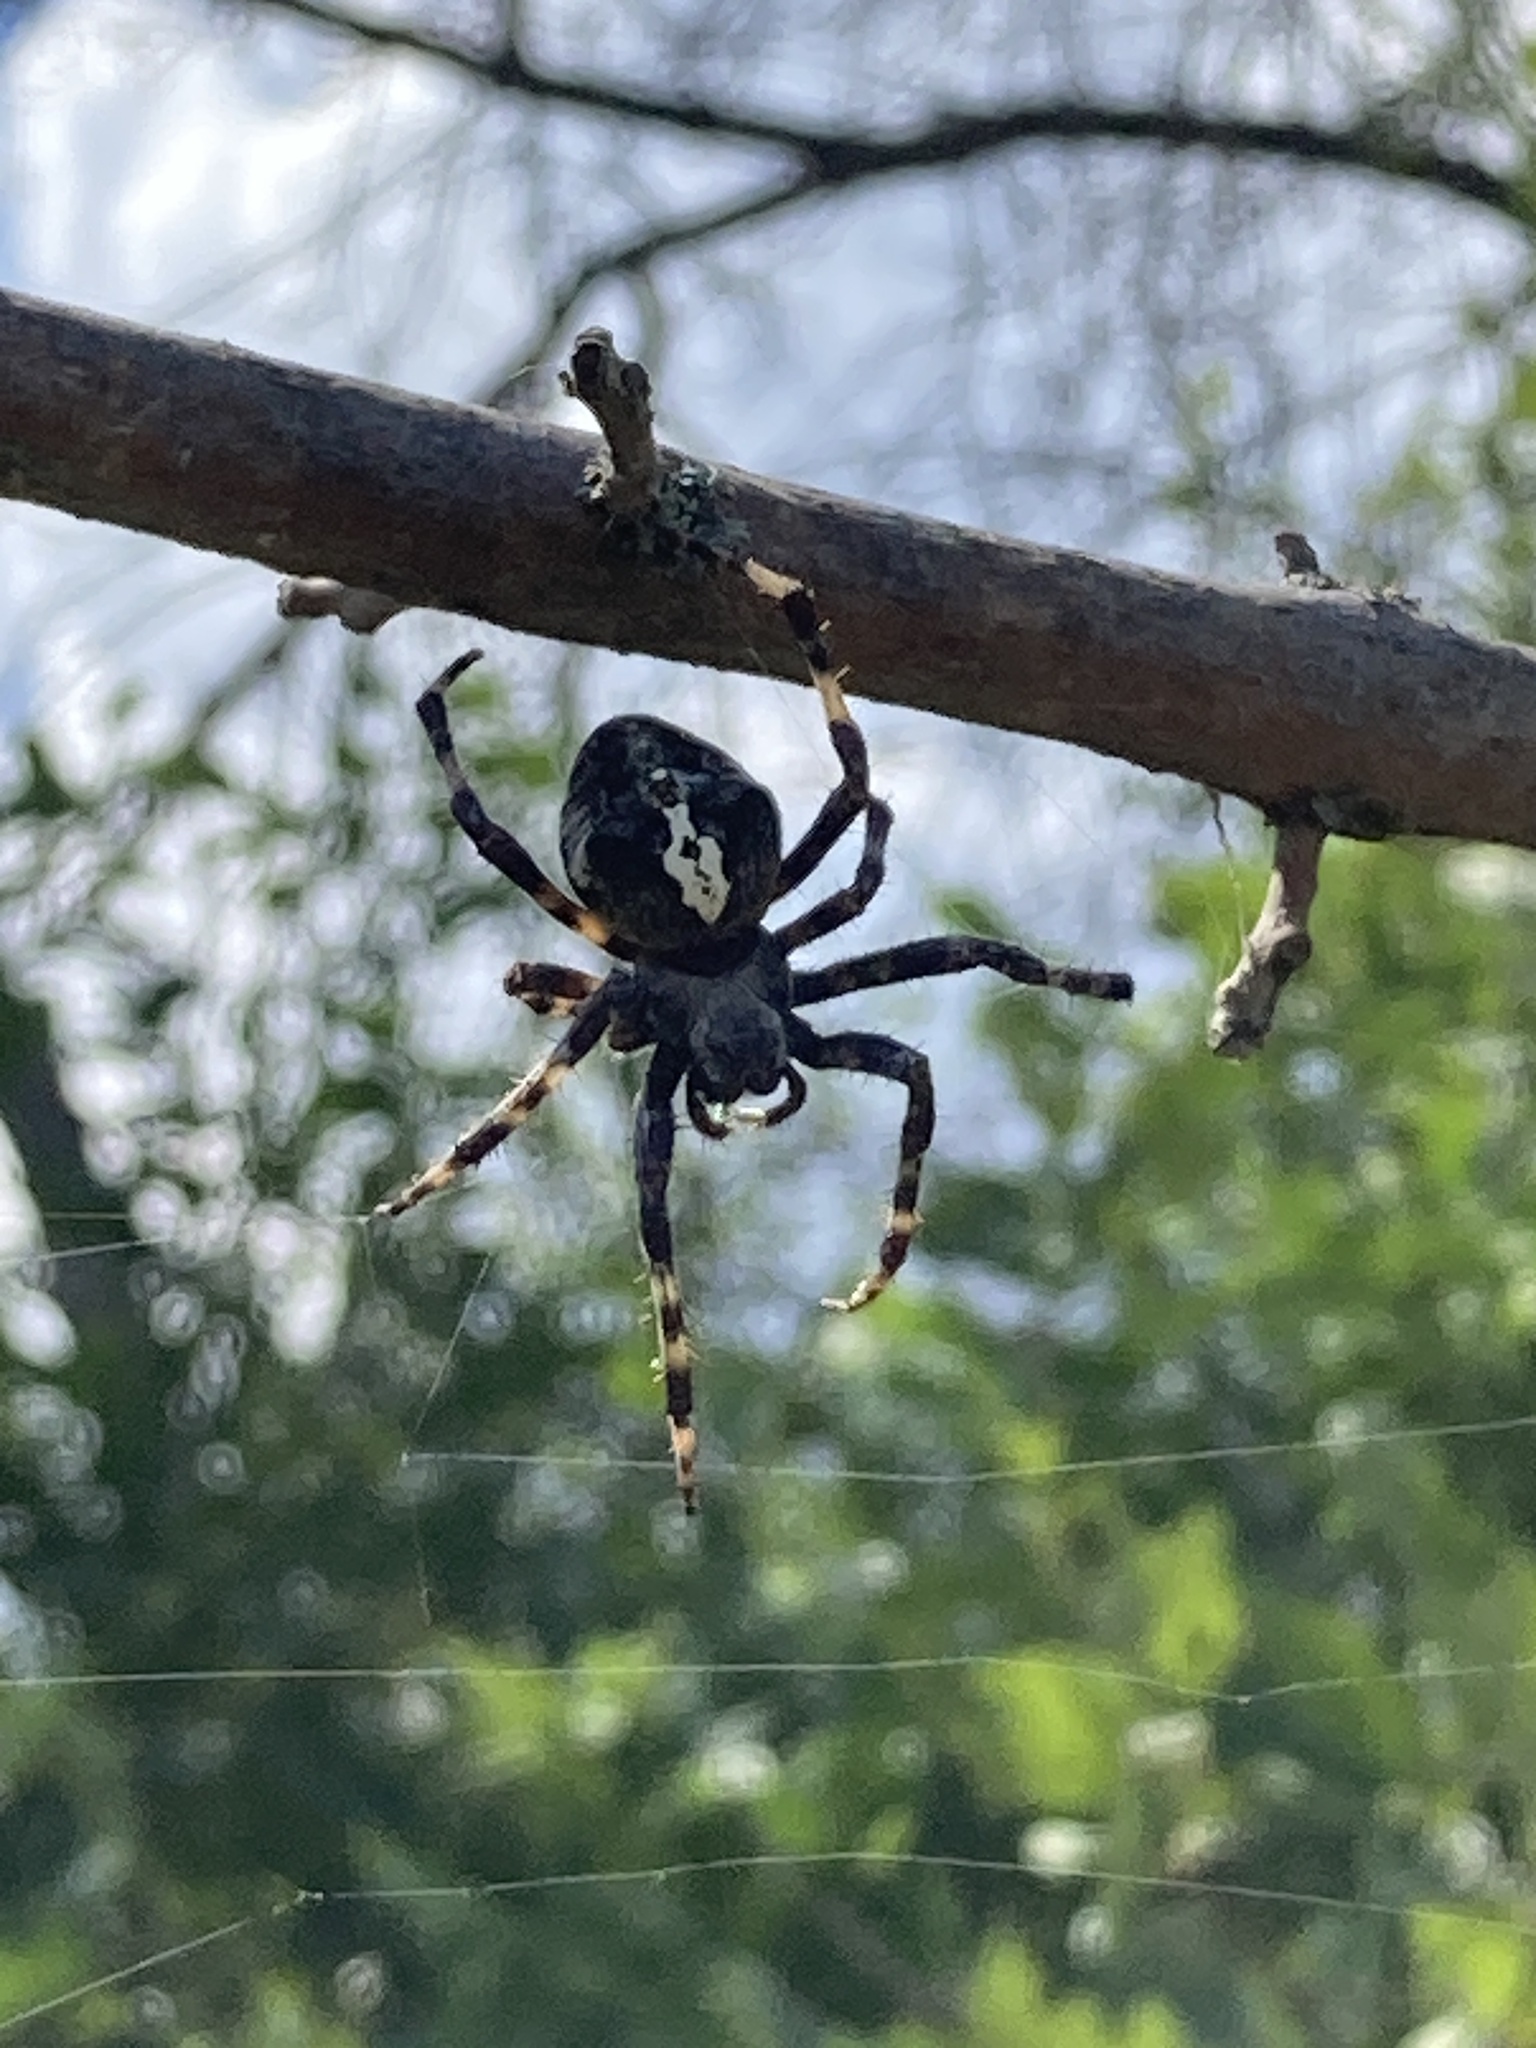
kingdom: Animalia
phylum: Arthropoda
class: Arachnida
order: Araneae
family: Araneidae
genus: Araneus
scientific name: Araneus angulatus
